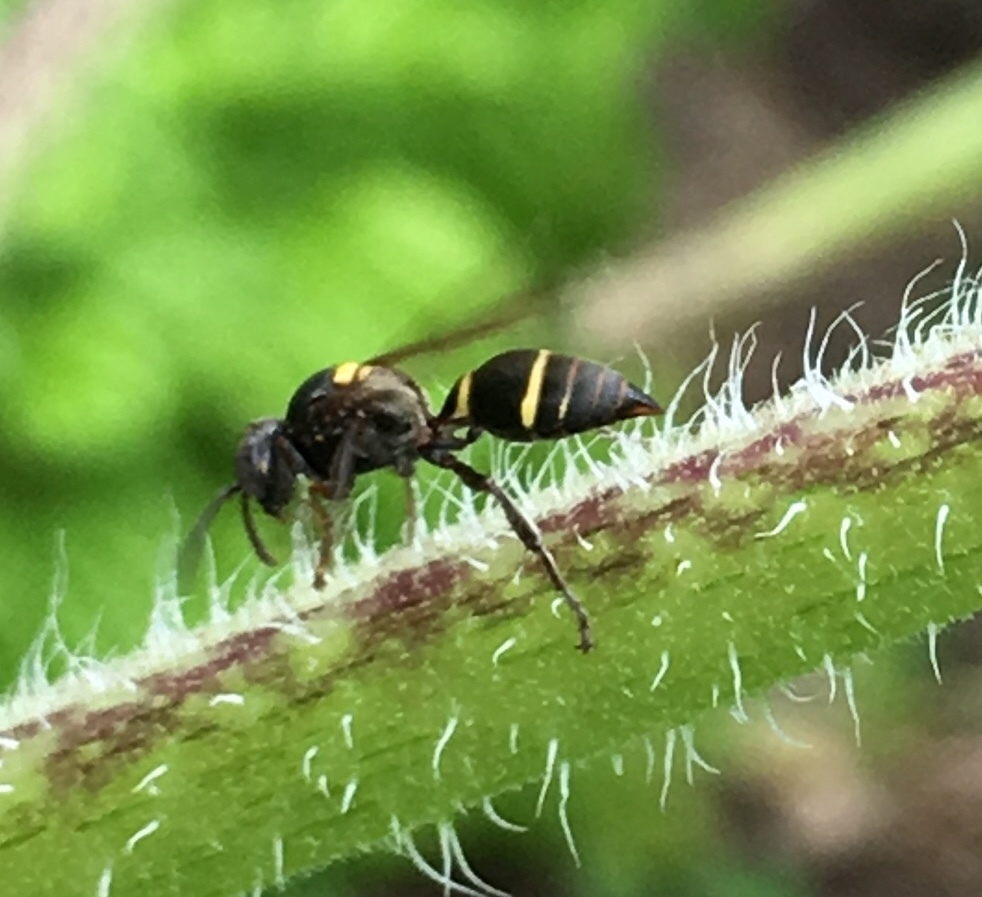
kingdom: Animalia
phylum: Arthropoda
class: Insecta
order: Hymenoptera
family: Crabronidae
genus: Hoplisoides
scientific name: Hoplisoides semipunctatus
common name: Sphecid wasp
